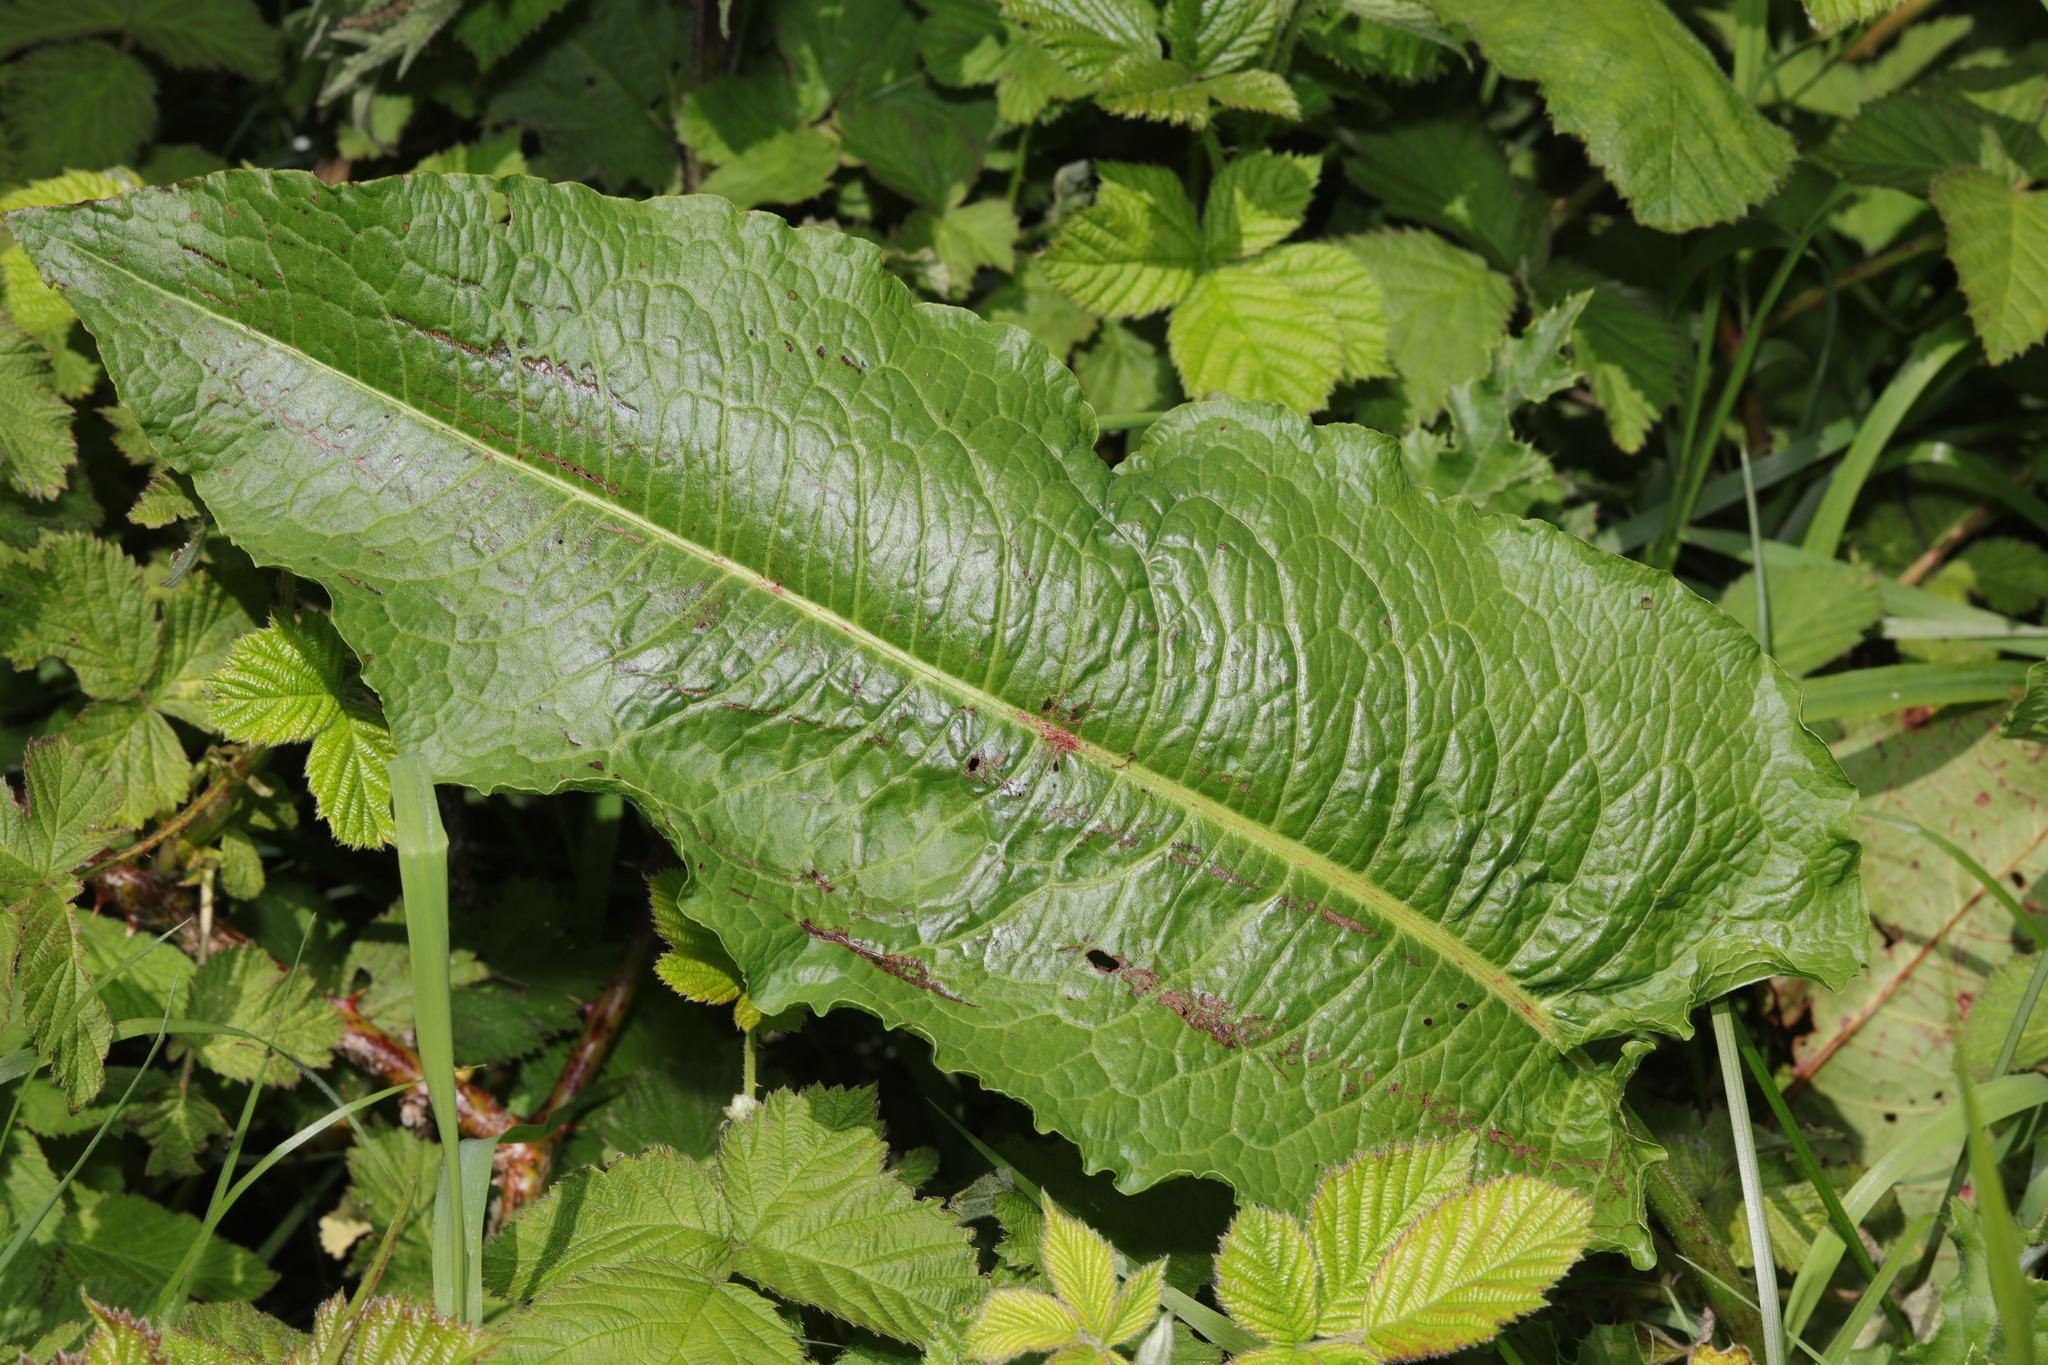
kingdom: Plantae
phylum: Tracheophyta
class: Magnoliopsida
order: Caryophyllales
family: Polygonaceae
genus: Rumex
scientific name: Rumex obtusifolius
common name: Bitter dock
